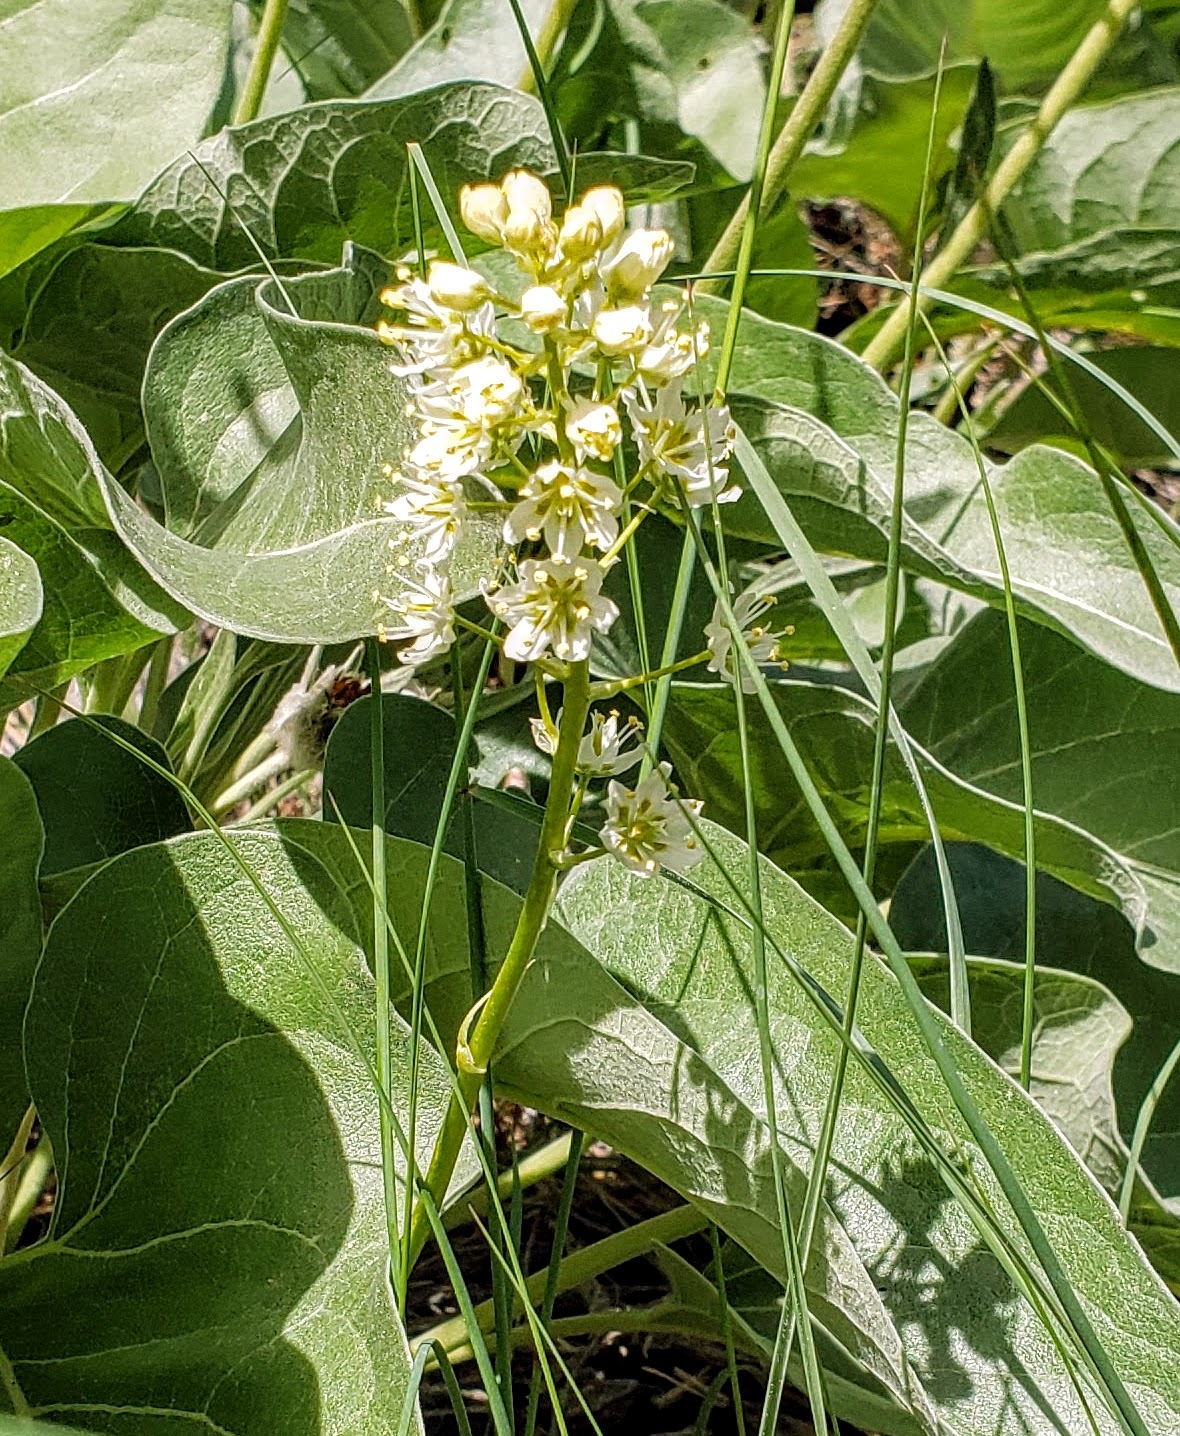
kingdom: Plantae
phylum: Tracheophyta
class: Liliopsida
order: Liliales
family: Melanthiaceae
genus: Toxicoscordion
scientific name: Toxicoscordion venenosum
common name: Meadow death camas
